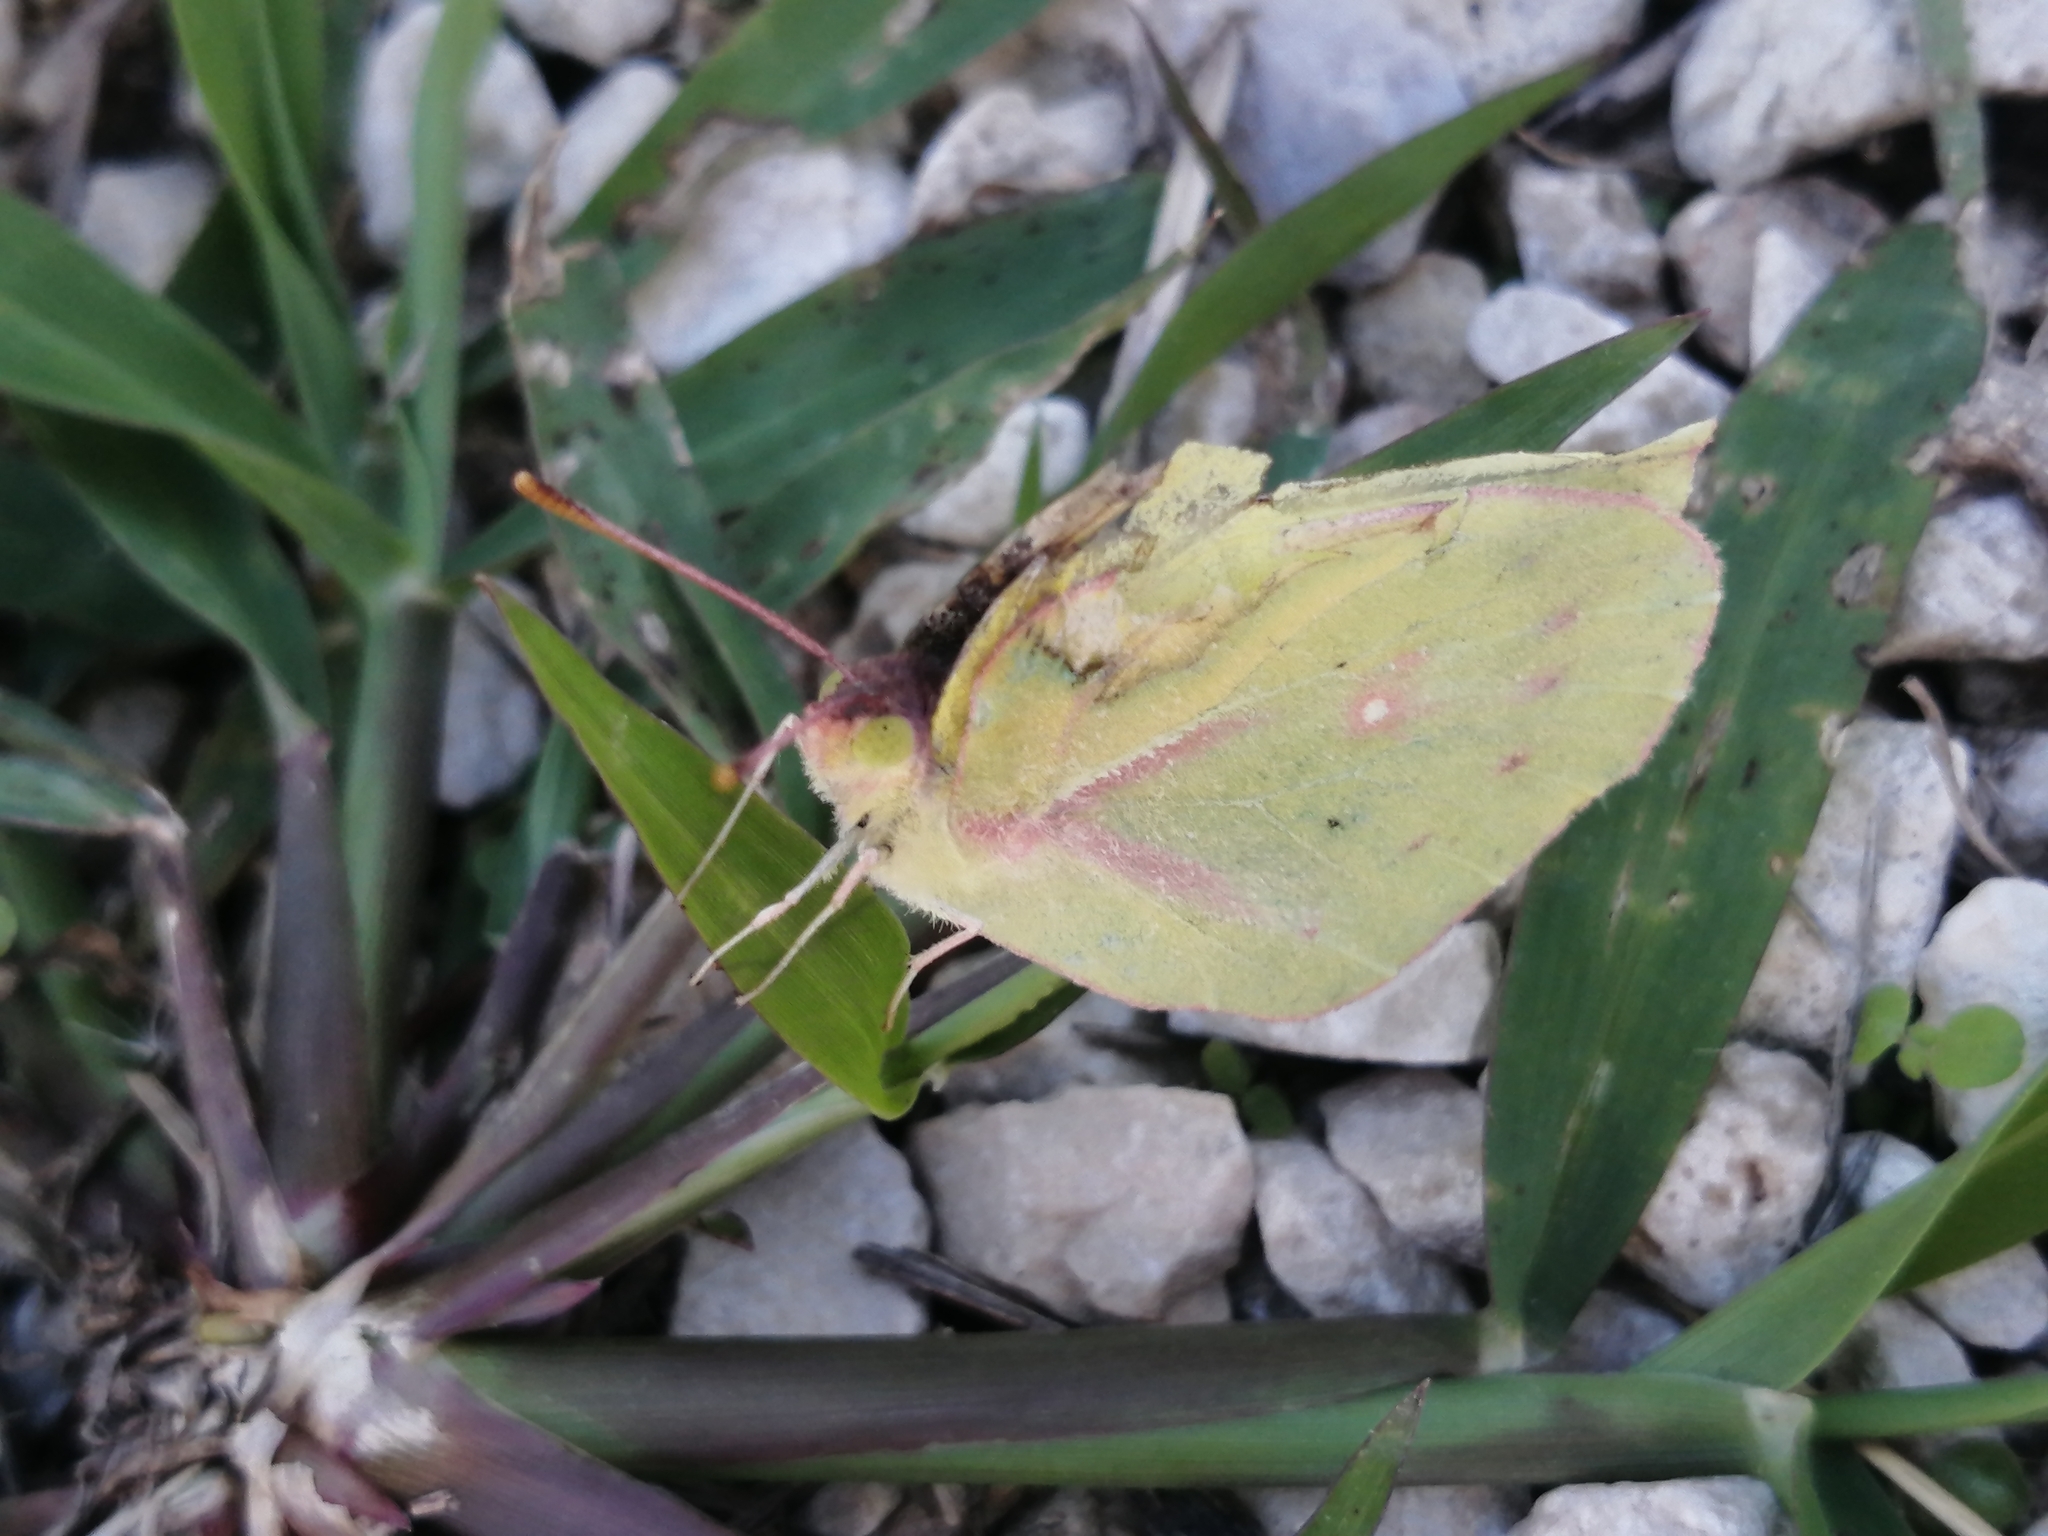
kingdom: Animalia
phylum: Arthropoda
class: Insecta
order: Lepidoptera
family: Pieridae
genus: Zerene
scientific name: Zerene cesonia
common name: Southern dogface
